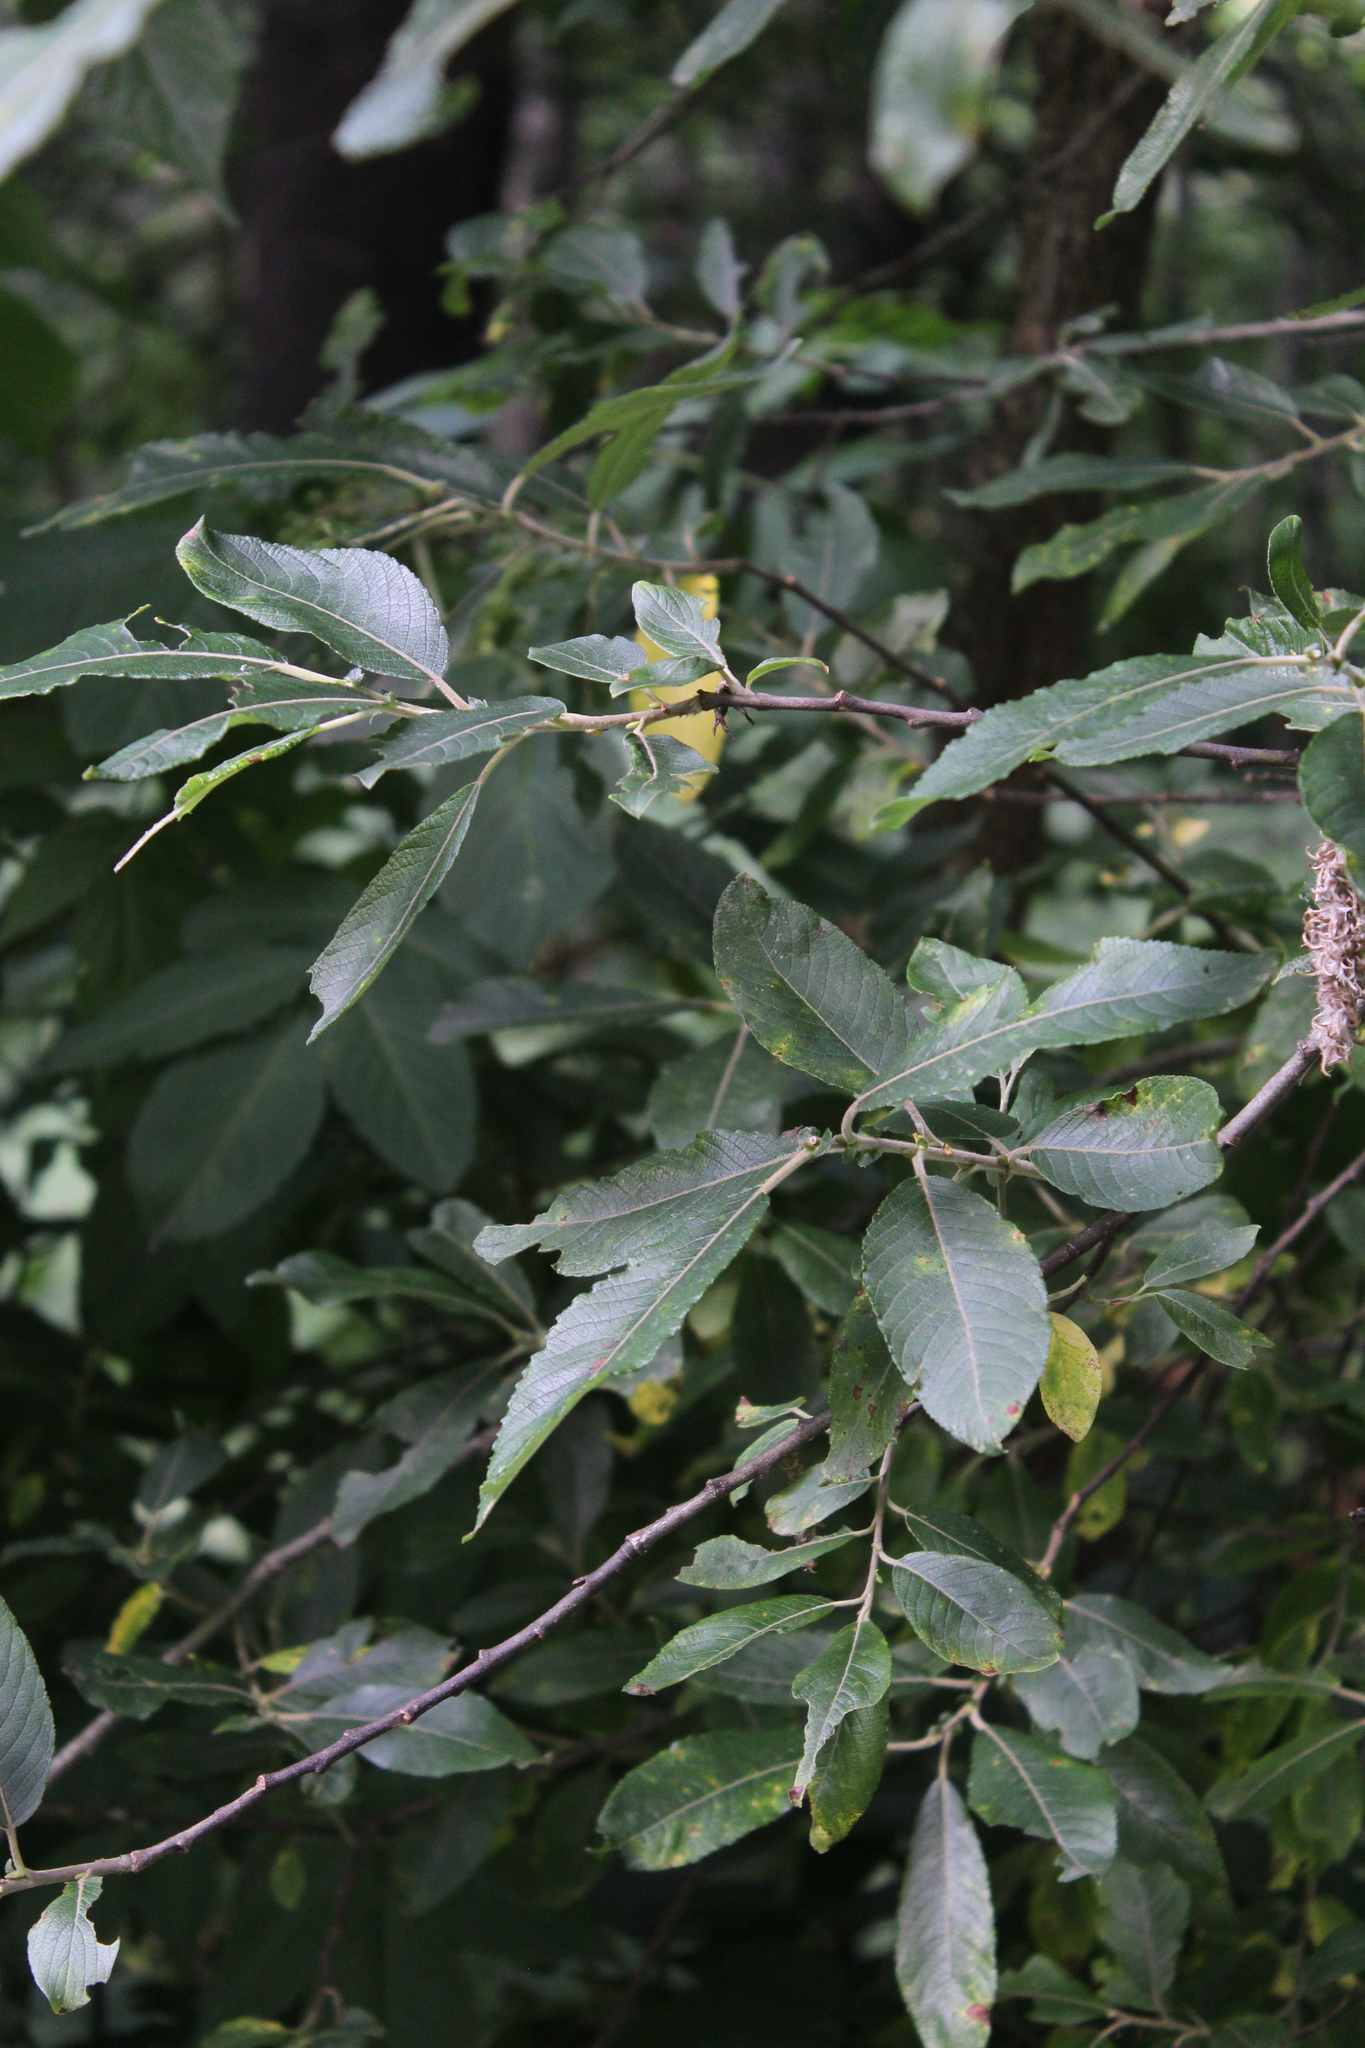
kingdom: Plantae
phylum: Tracheophyta
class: Magnoliopsida
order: Malpighiales
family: Salicaceae
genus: Salix
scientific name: Salix caprea
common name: Goat willow
